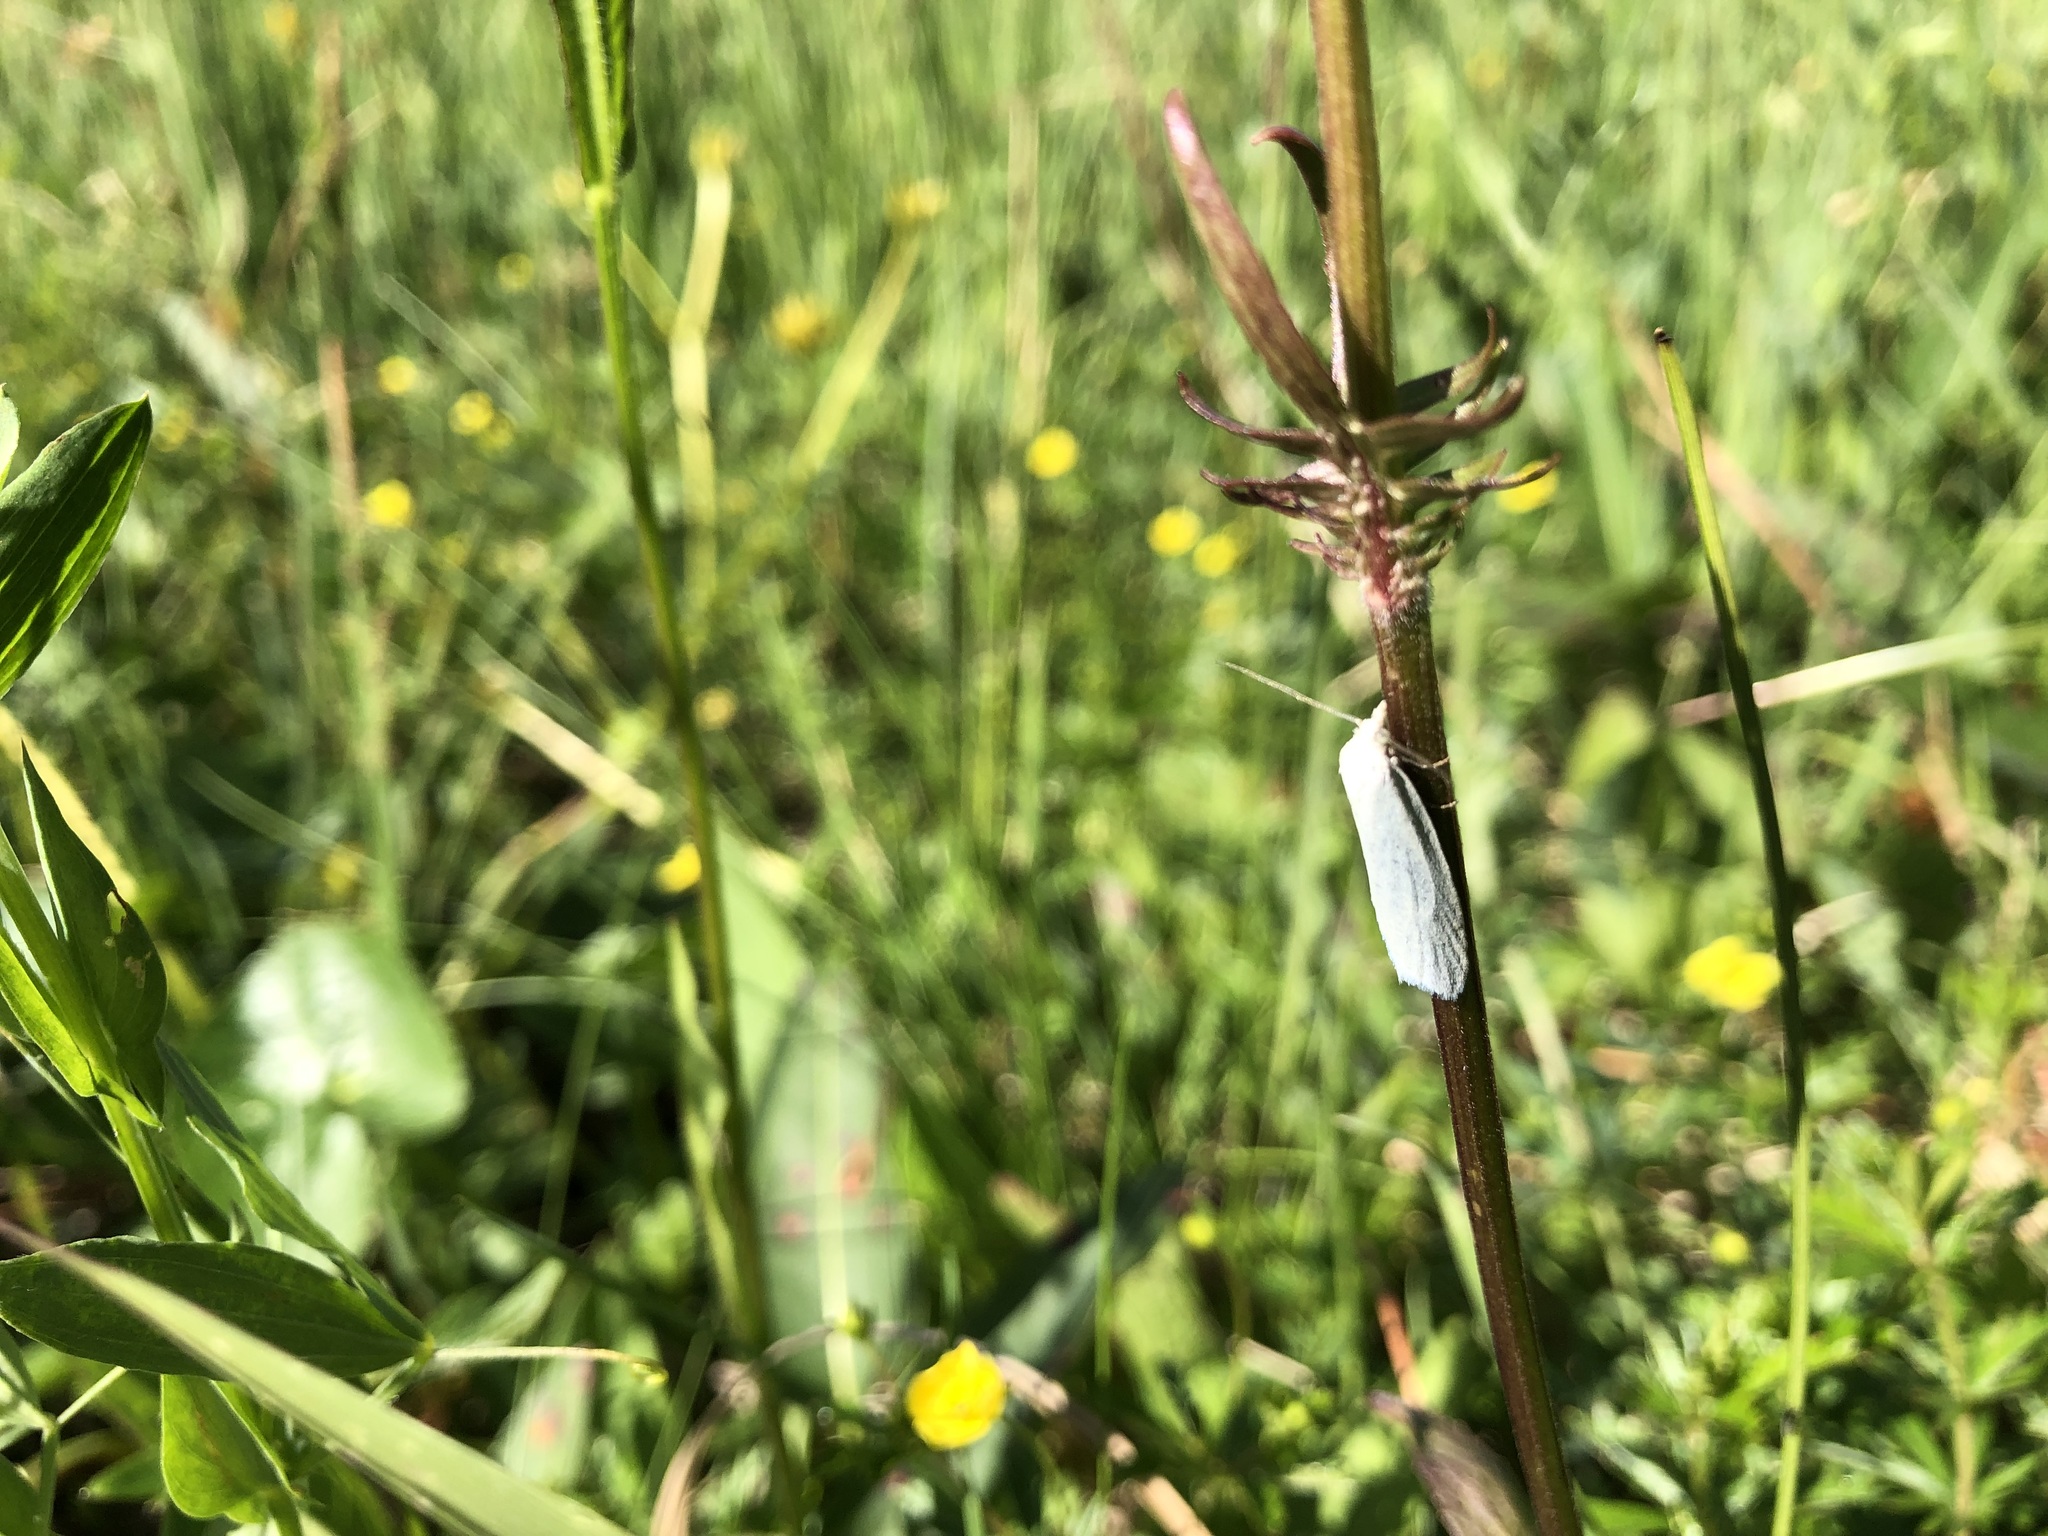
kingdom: Animalia
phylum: Arthropoda
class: Insecta
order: Lepidoptera
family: Tortricidae
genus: Eana
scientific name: Eana argentana
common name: Silver shade
